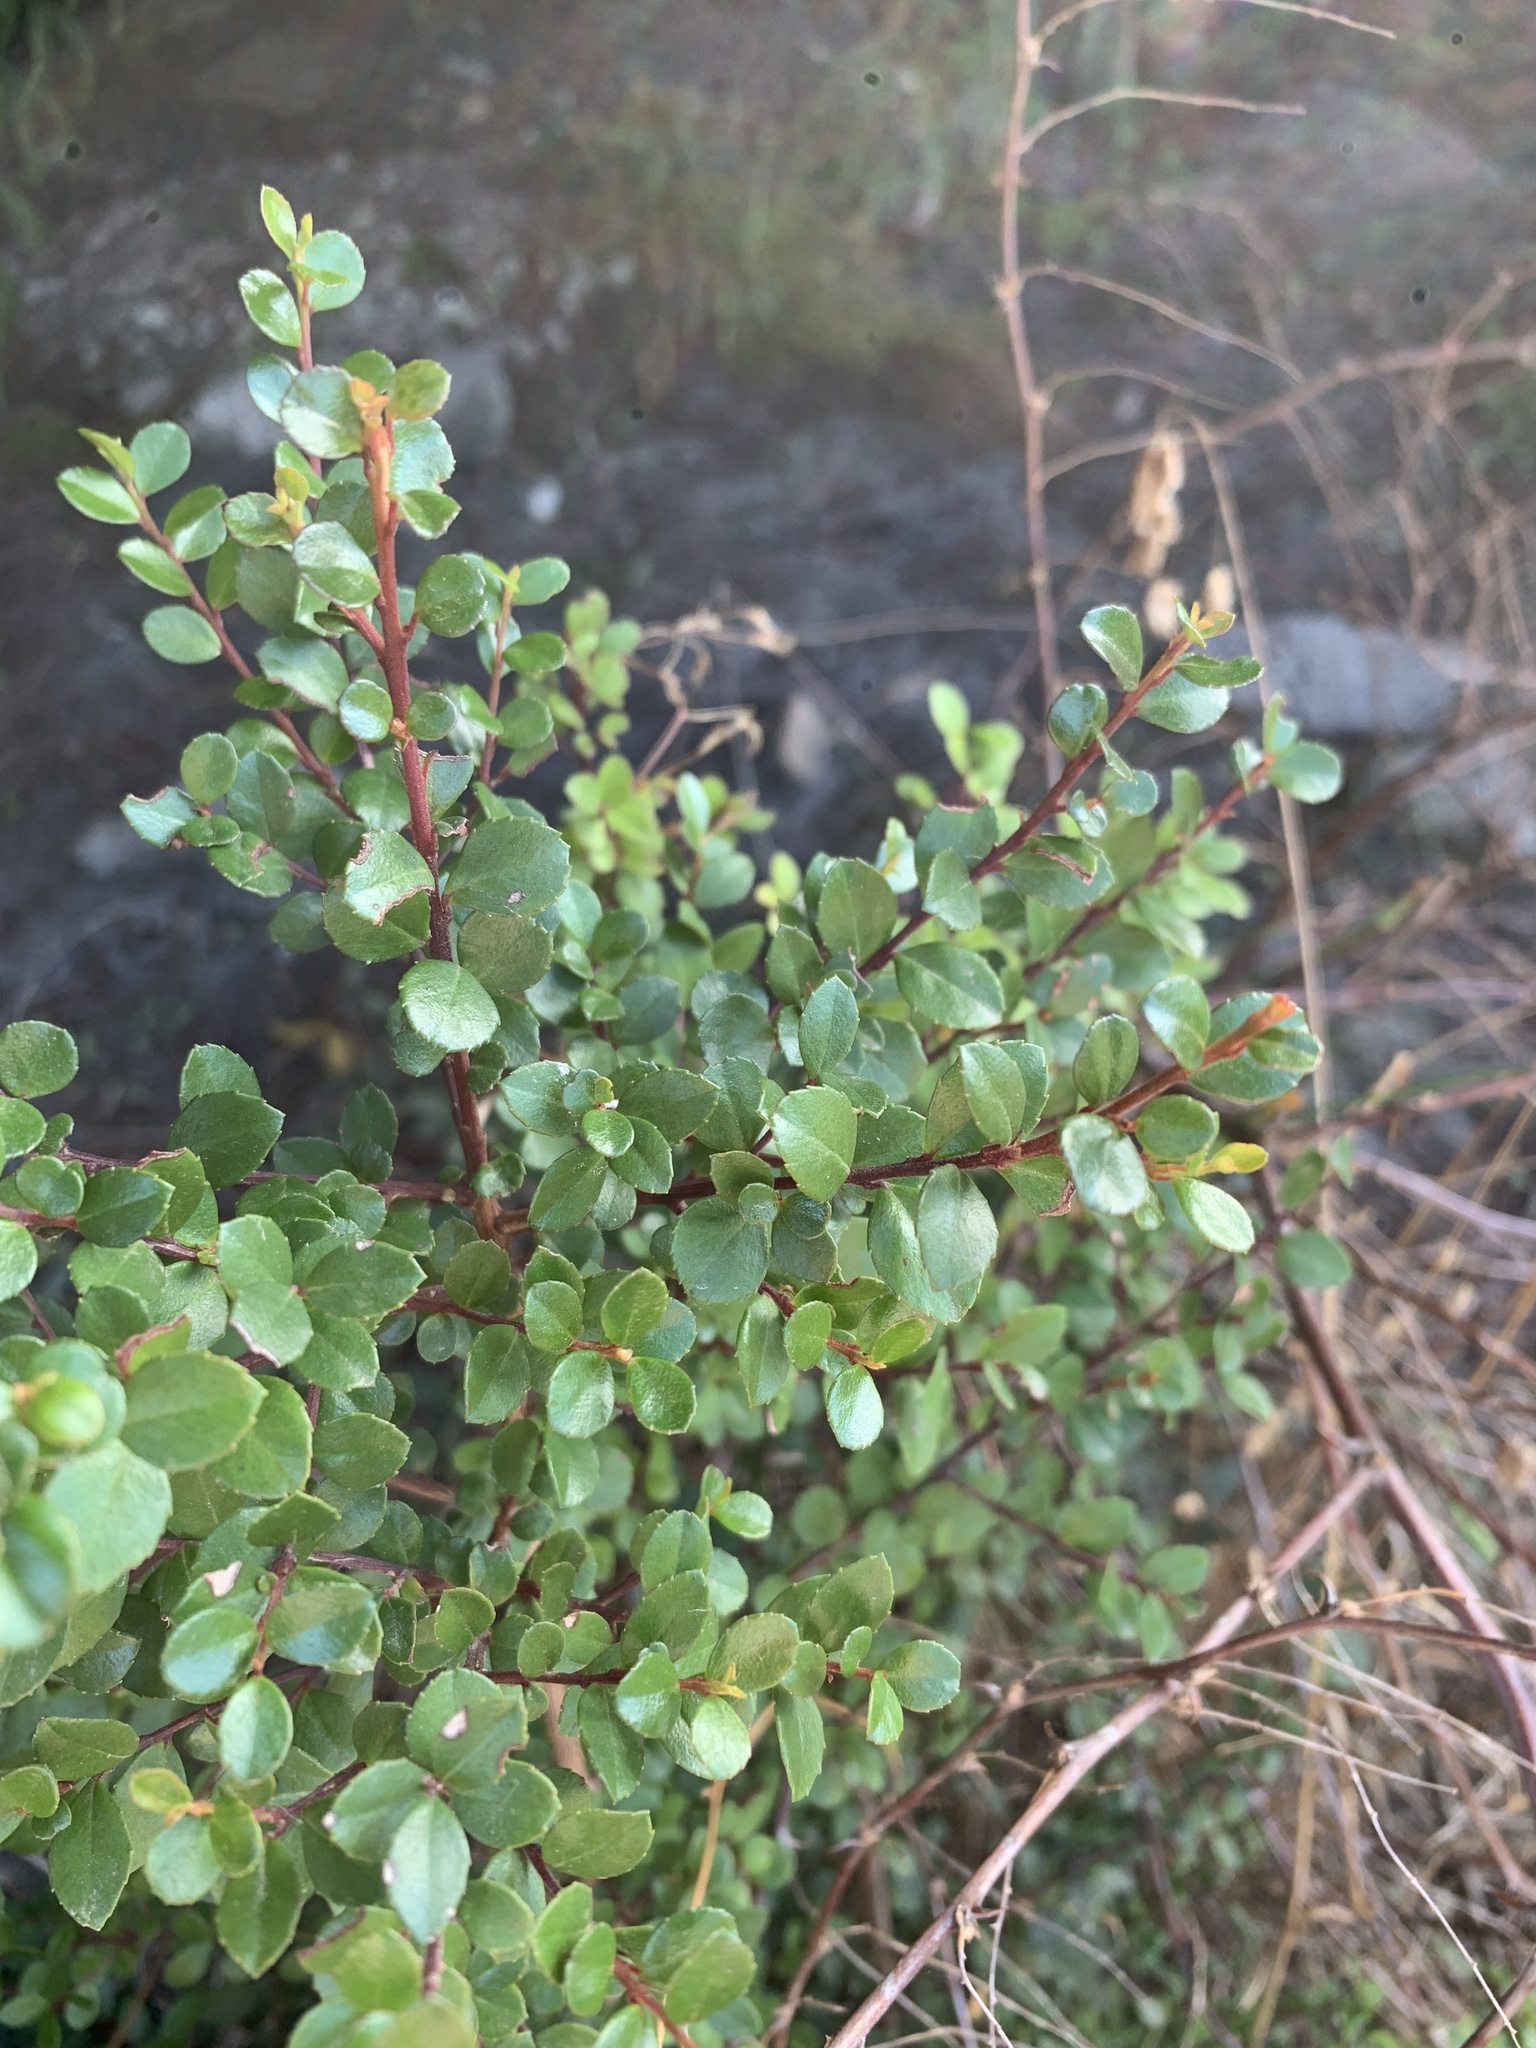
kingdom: Plantae
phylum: Tracheophyta
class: Magnoliopsida
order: Ericales
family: Primulaceae
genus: Myrsine
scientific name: Myrsine africana
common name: African-boxwood
